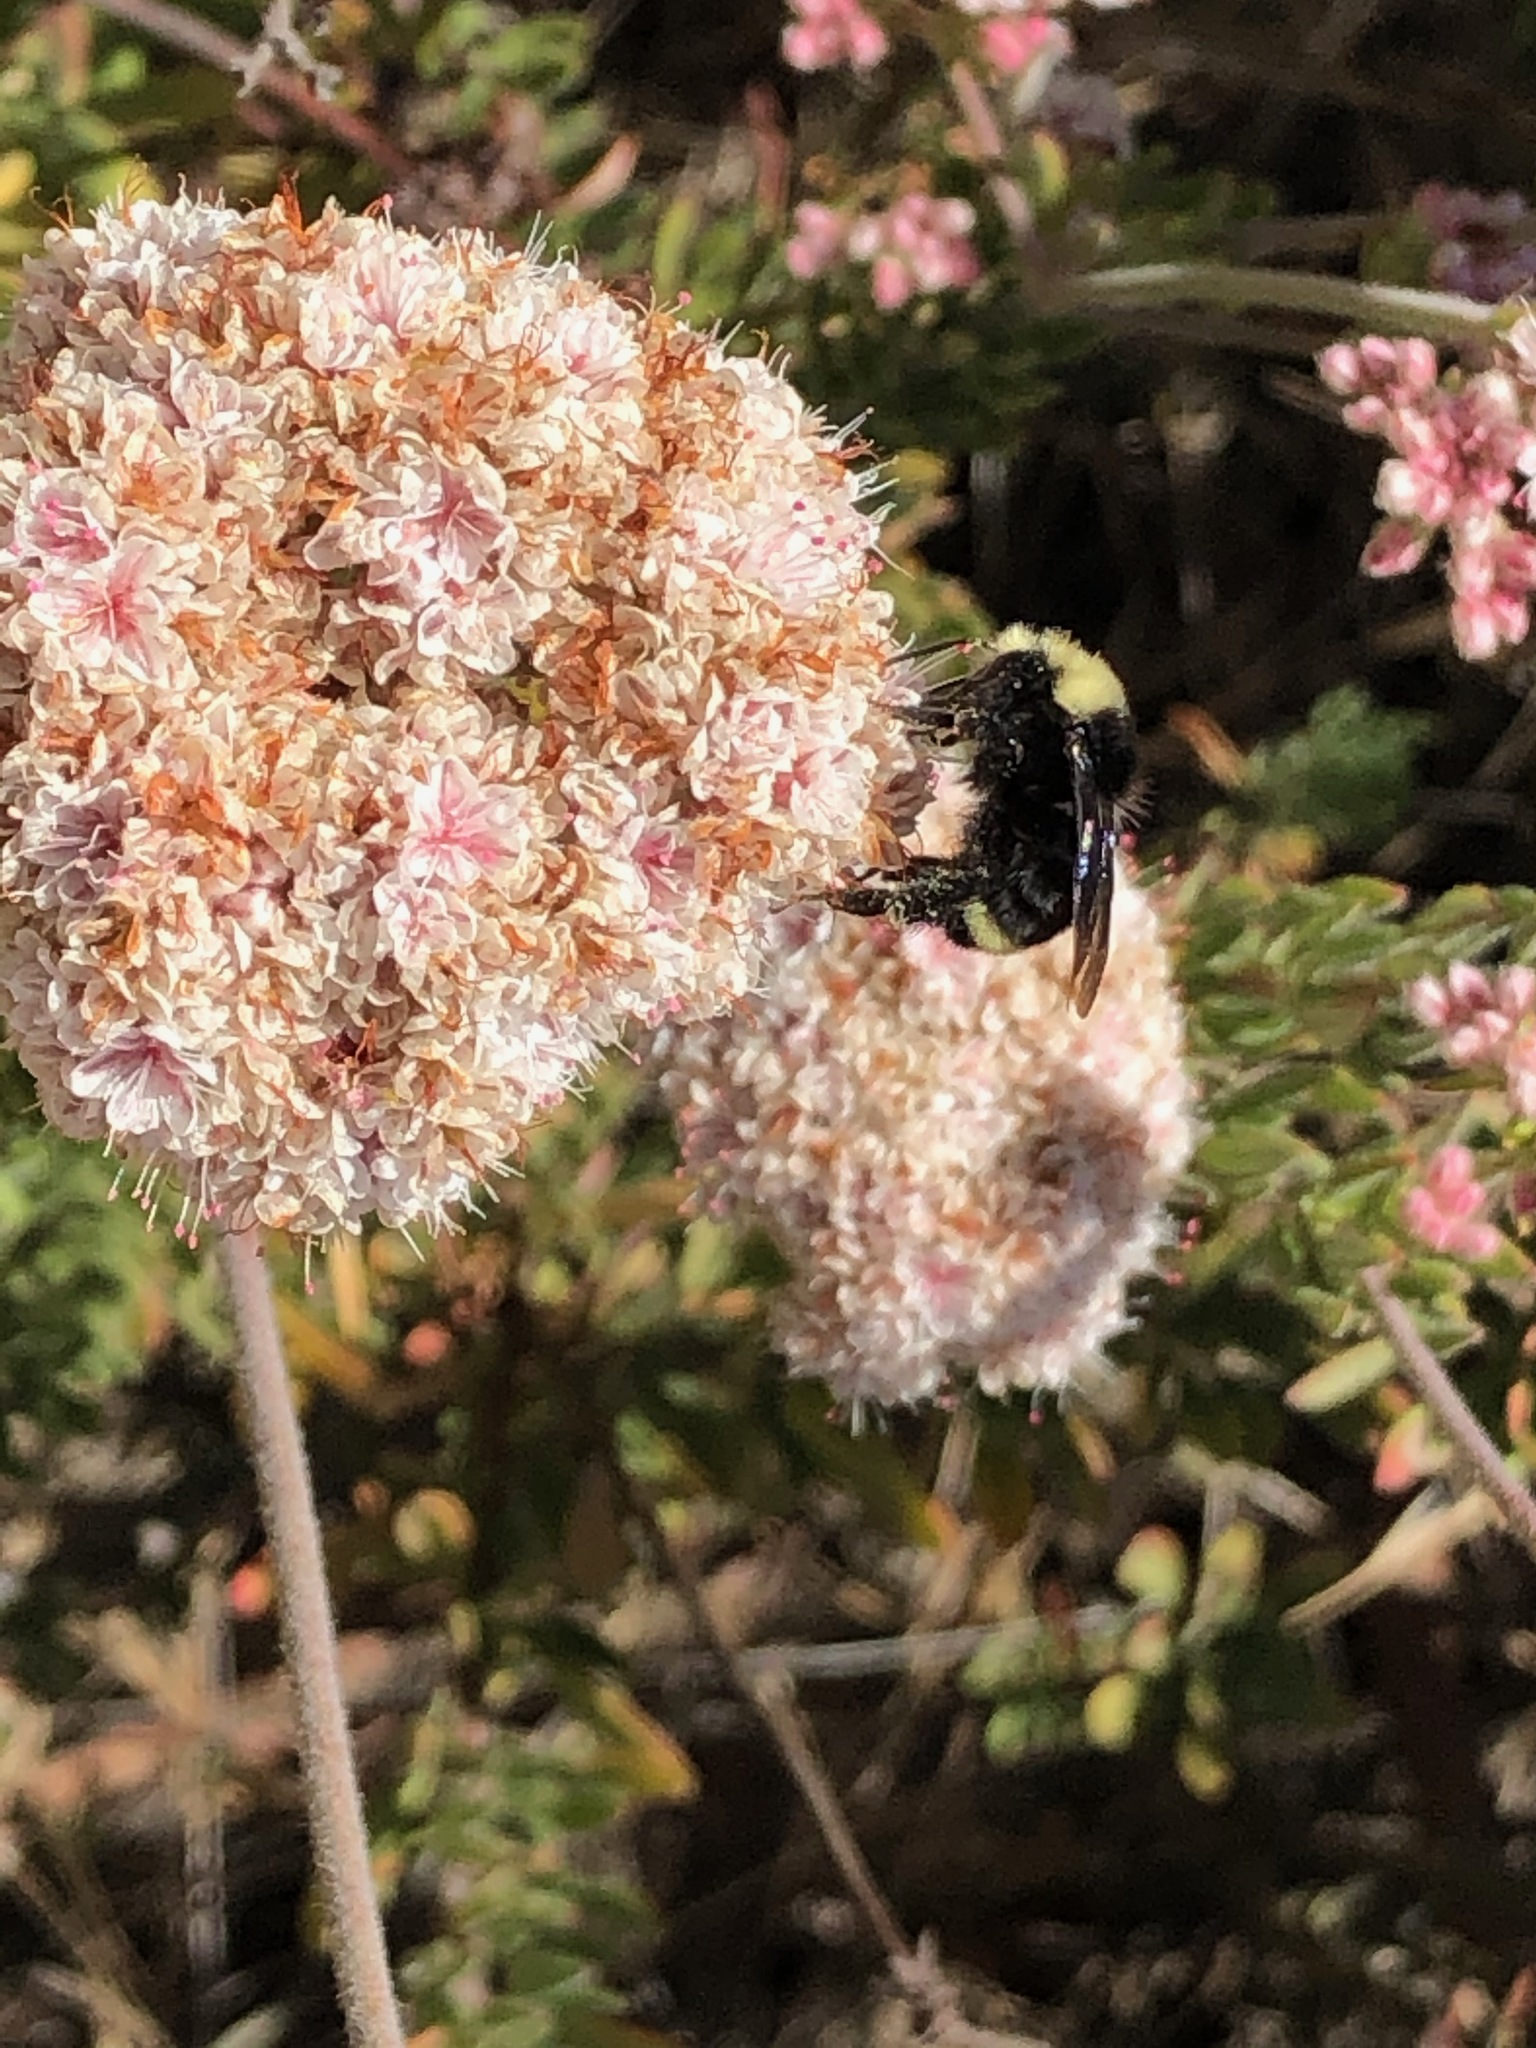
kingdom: Animalia
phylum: Arthropoda
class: Insecta
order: Hymenoptera
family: Apidae
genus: Bombus
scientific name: Bombus vosnesenskii
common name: Vosnesensky bumble bee
